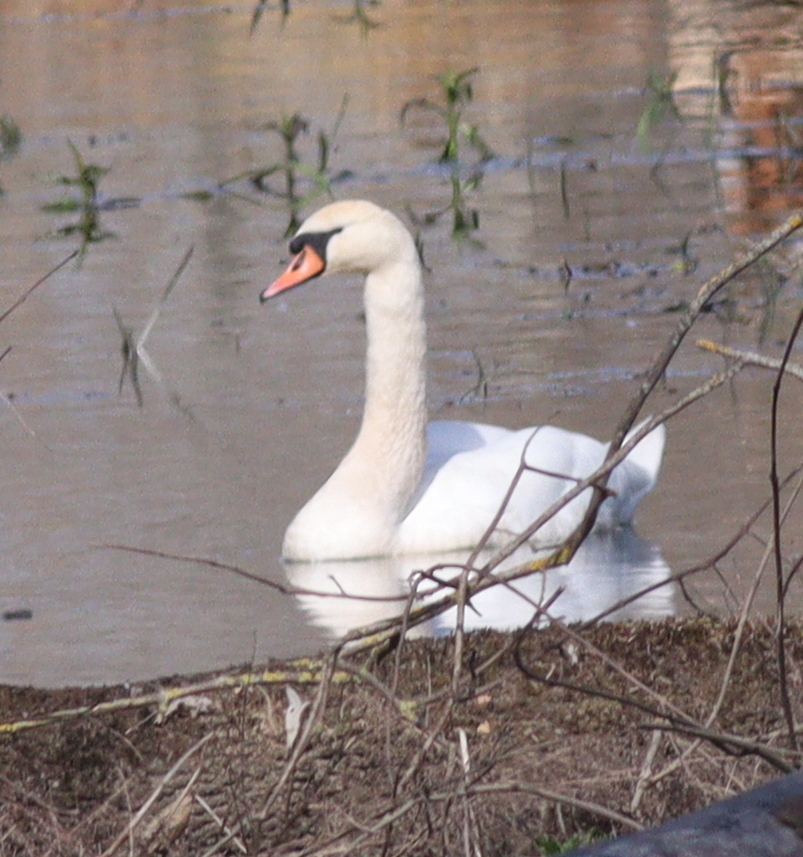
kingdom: Animalia
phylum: Chordata
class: Aves
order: Anseriformes
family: Anatidae
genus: Cygnus
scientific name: Cygnus olor
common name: Mute swan
